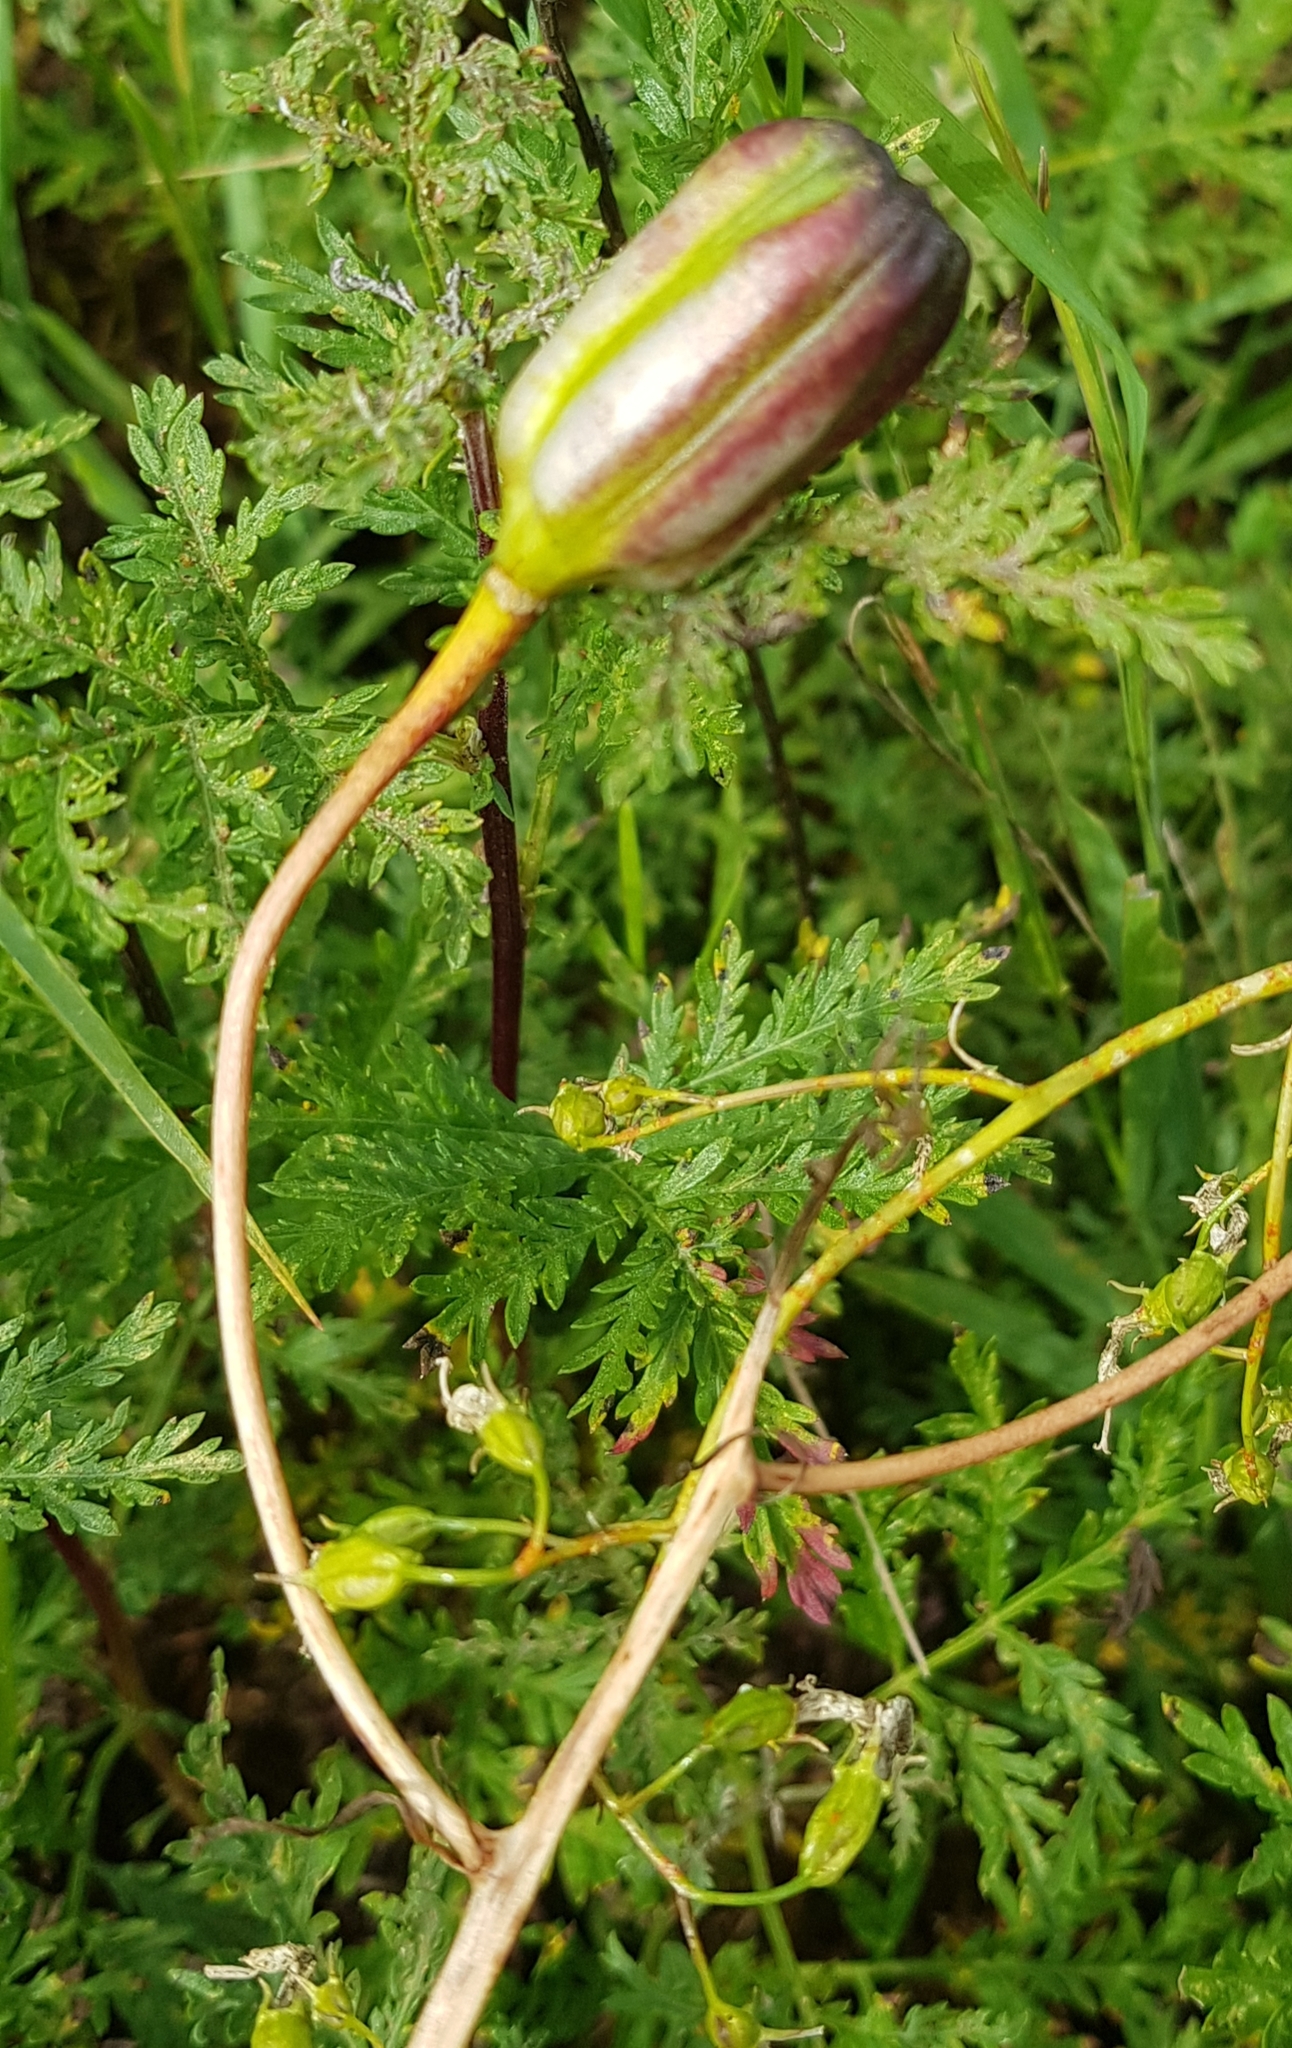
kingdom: Plantae
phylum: Tracheophyta
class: Liliopsida
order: Liliales
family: Liliaceae
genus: Lilium
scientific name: Lilium pumilum
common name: Coral lily
